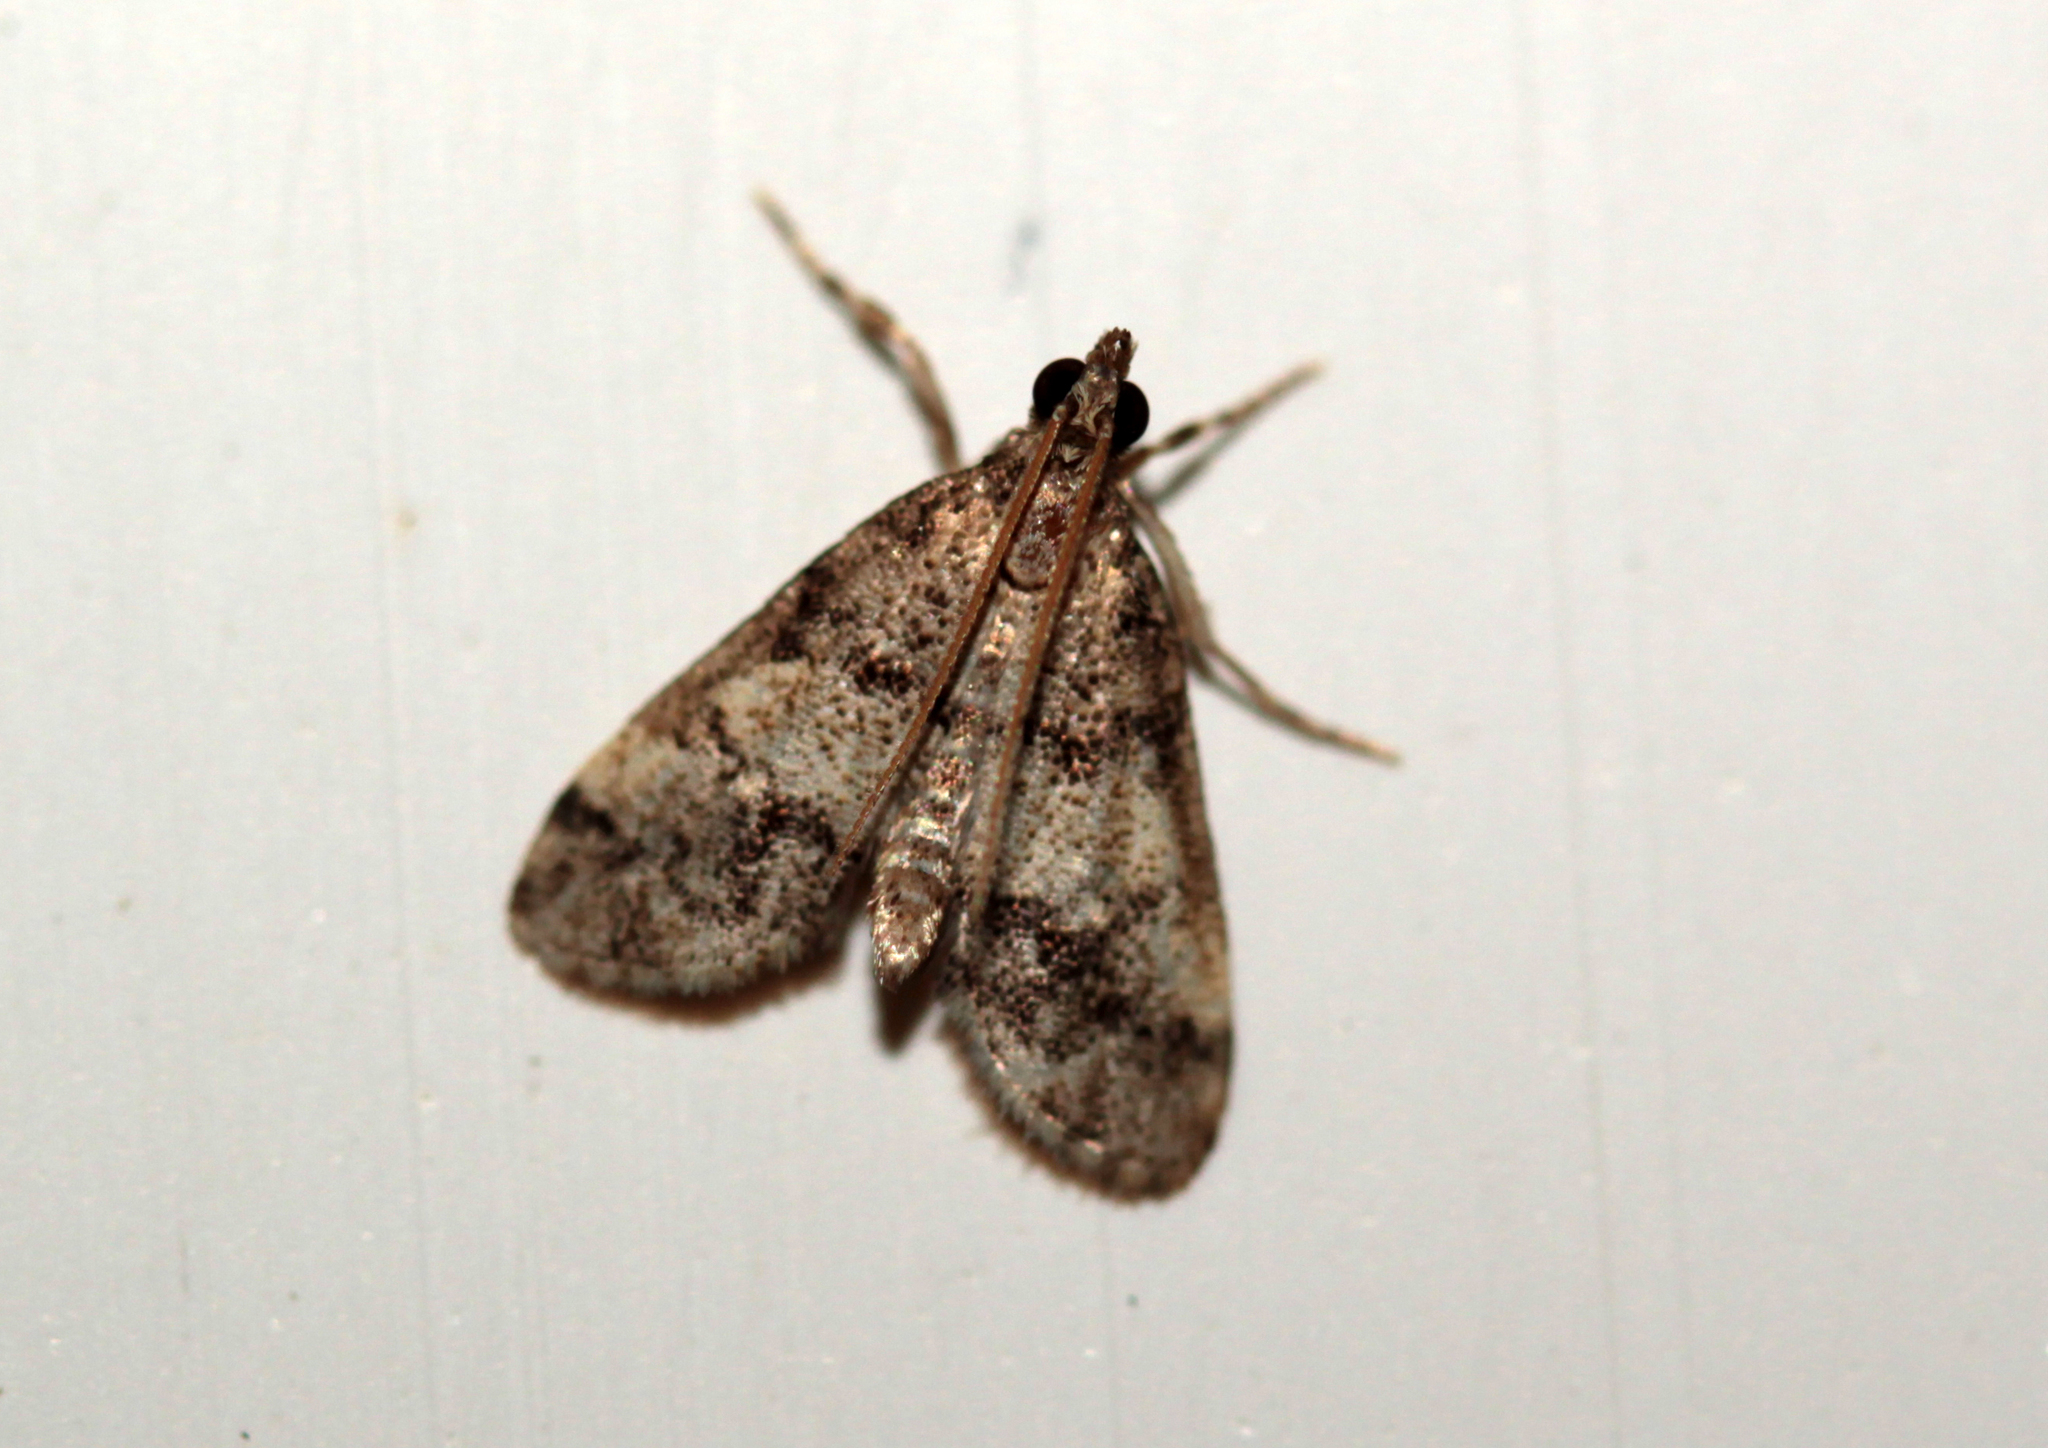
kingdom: Animalia
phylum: Arthropoda
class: Insecta
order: Lepidoptera
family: Crambidae
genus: Stenia
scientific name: Stenia Dolicharthria bruguieralis
